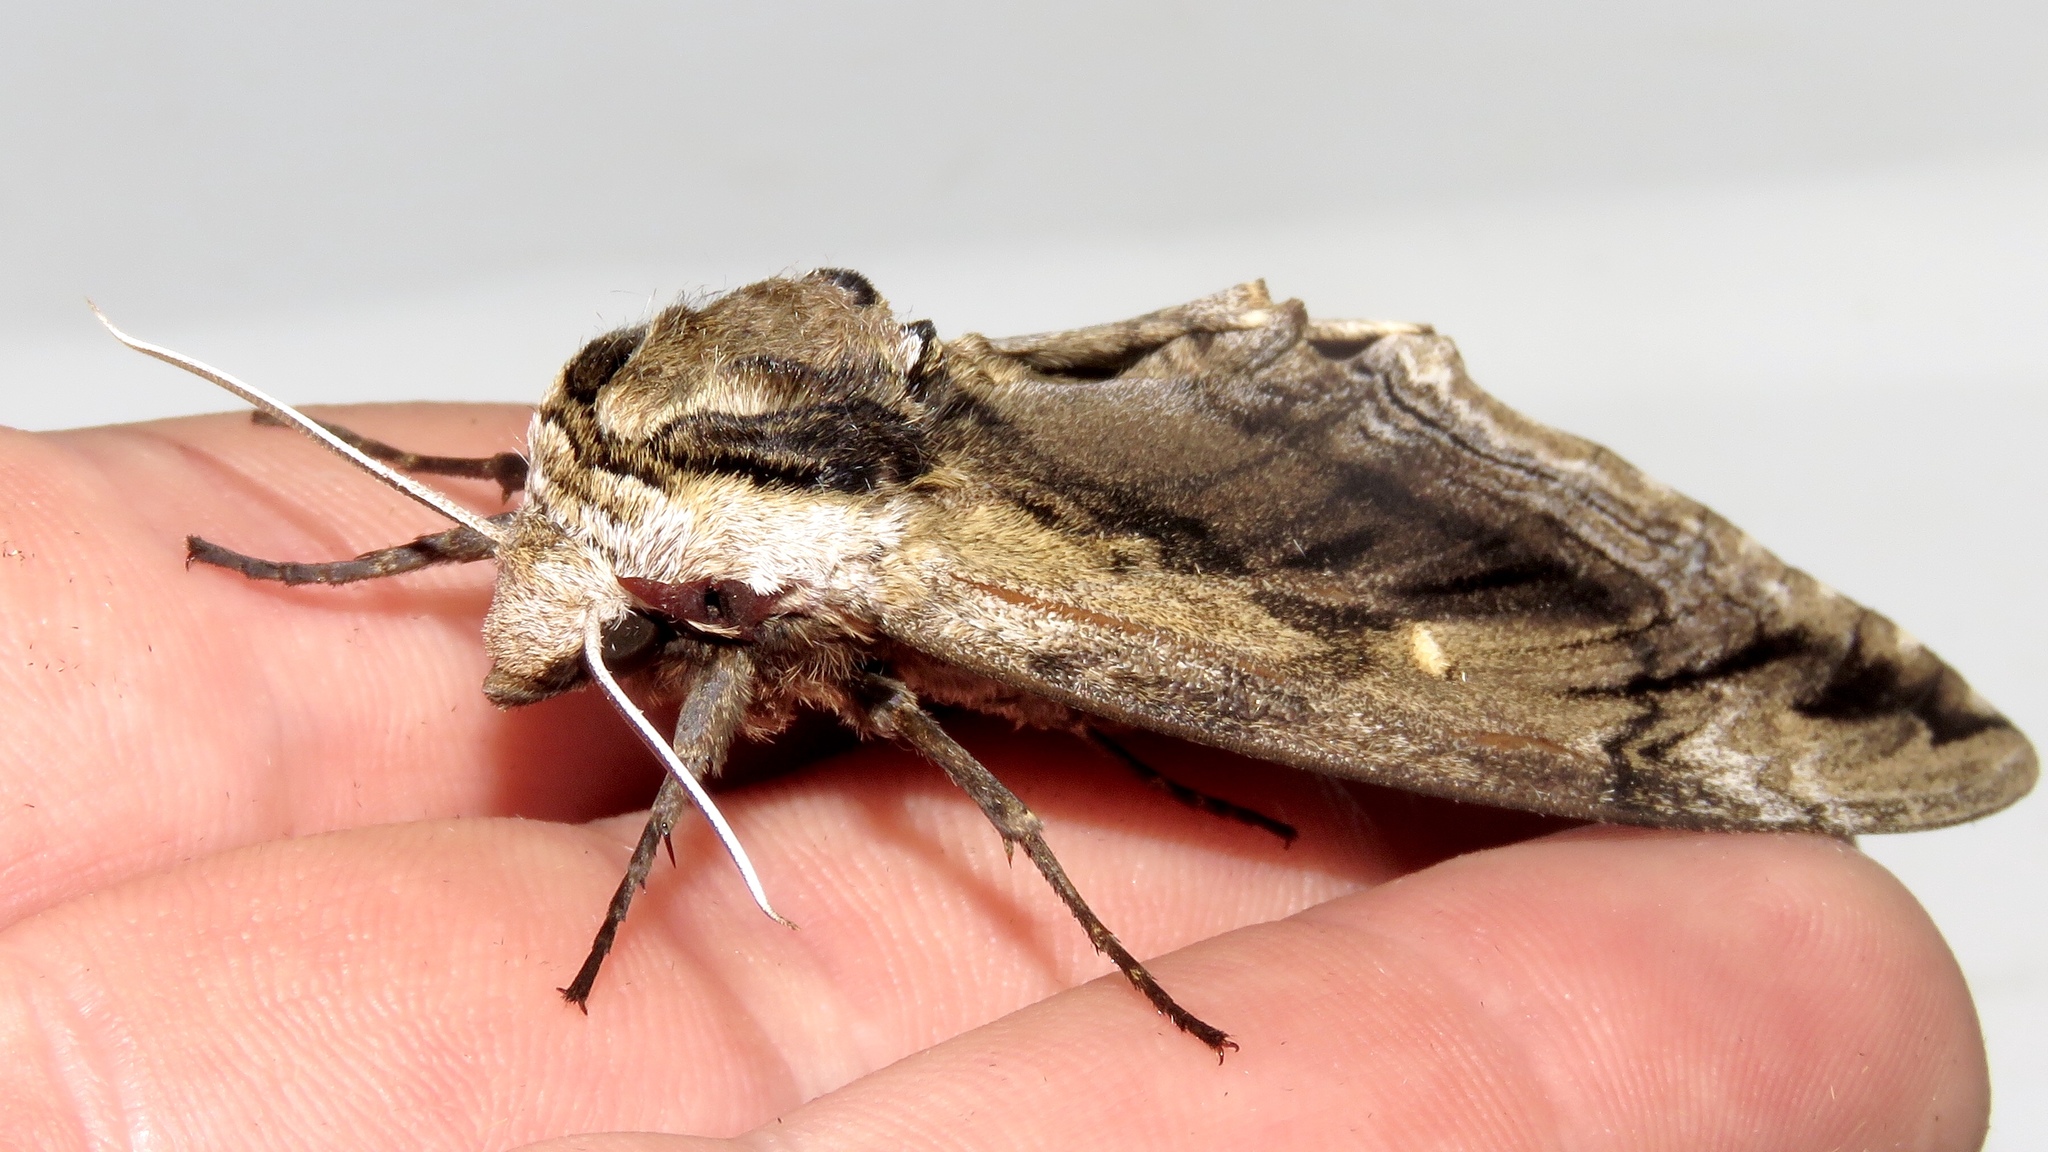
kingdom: Animalia
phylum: Arthropoda
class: Insecta
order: Lepidoptera
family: Sphingidae
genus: Ceratomia
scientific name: Ceratomia amyntor
